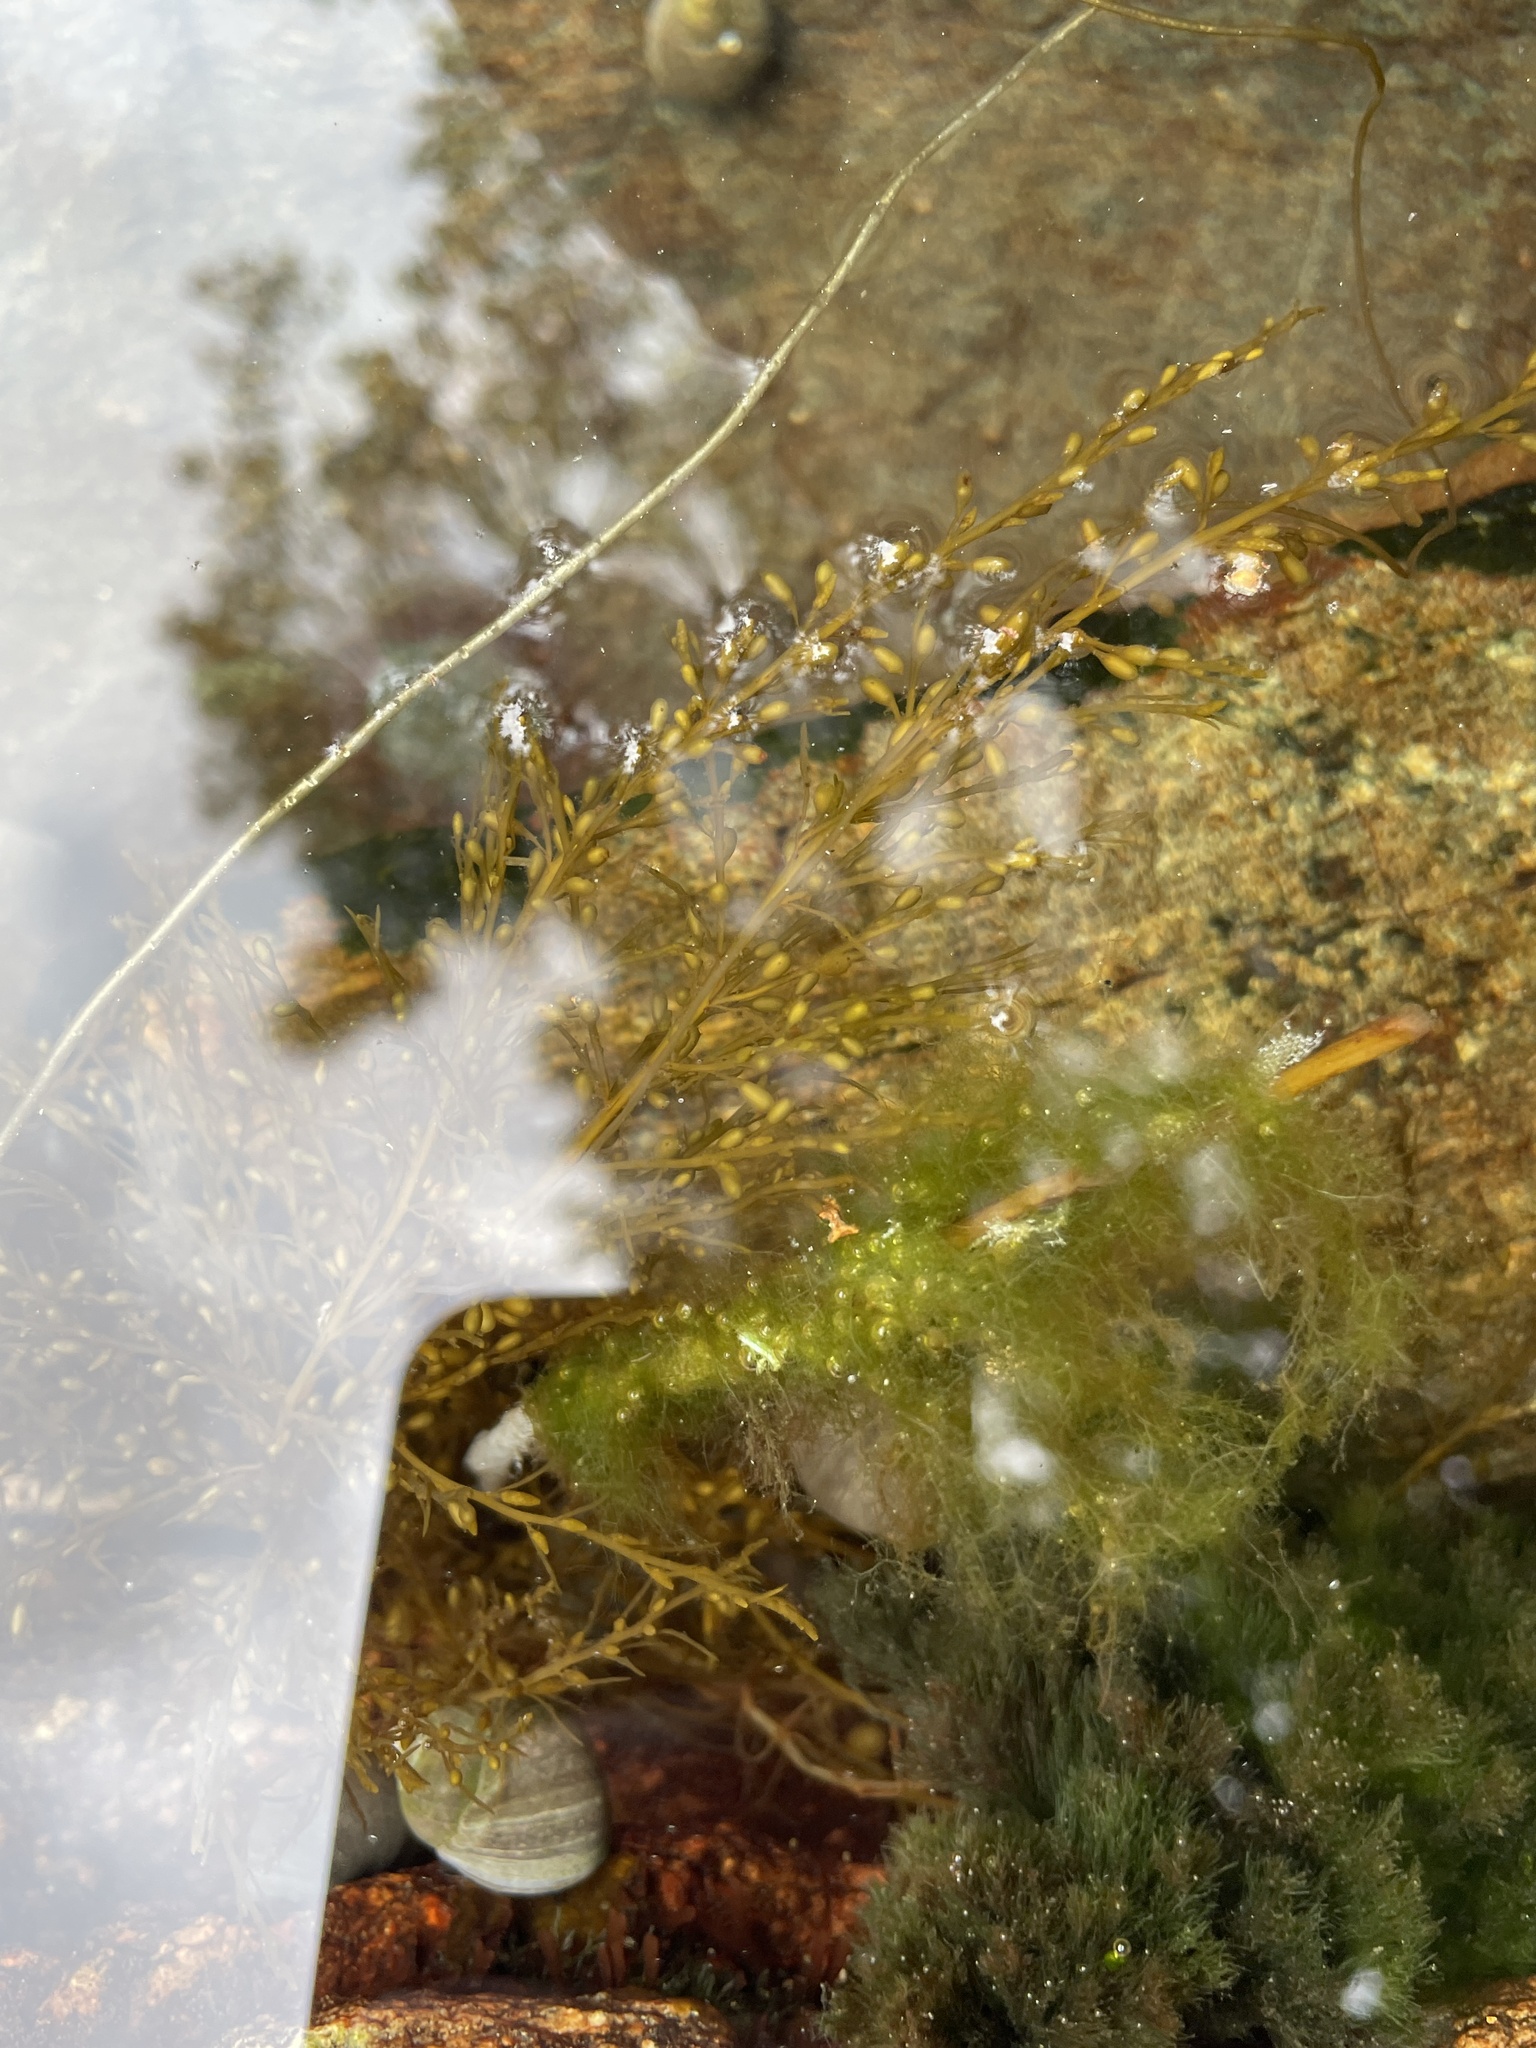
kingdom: Chromista
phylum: Ochrophyta
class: Phaeophyceae
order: Fucales
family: Sargassaceae
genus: Sargassum
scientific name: Sargassum muticum
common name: Japweed
